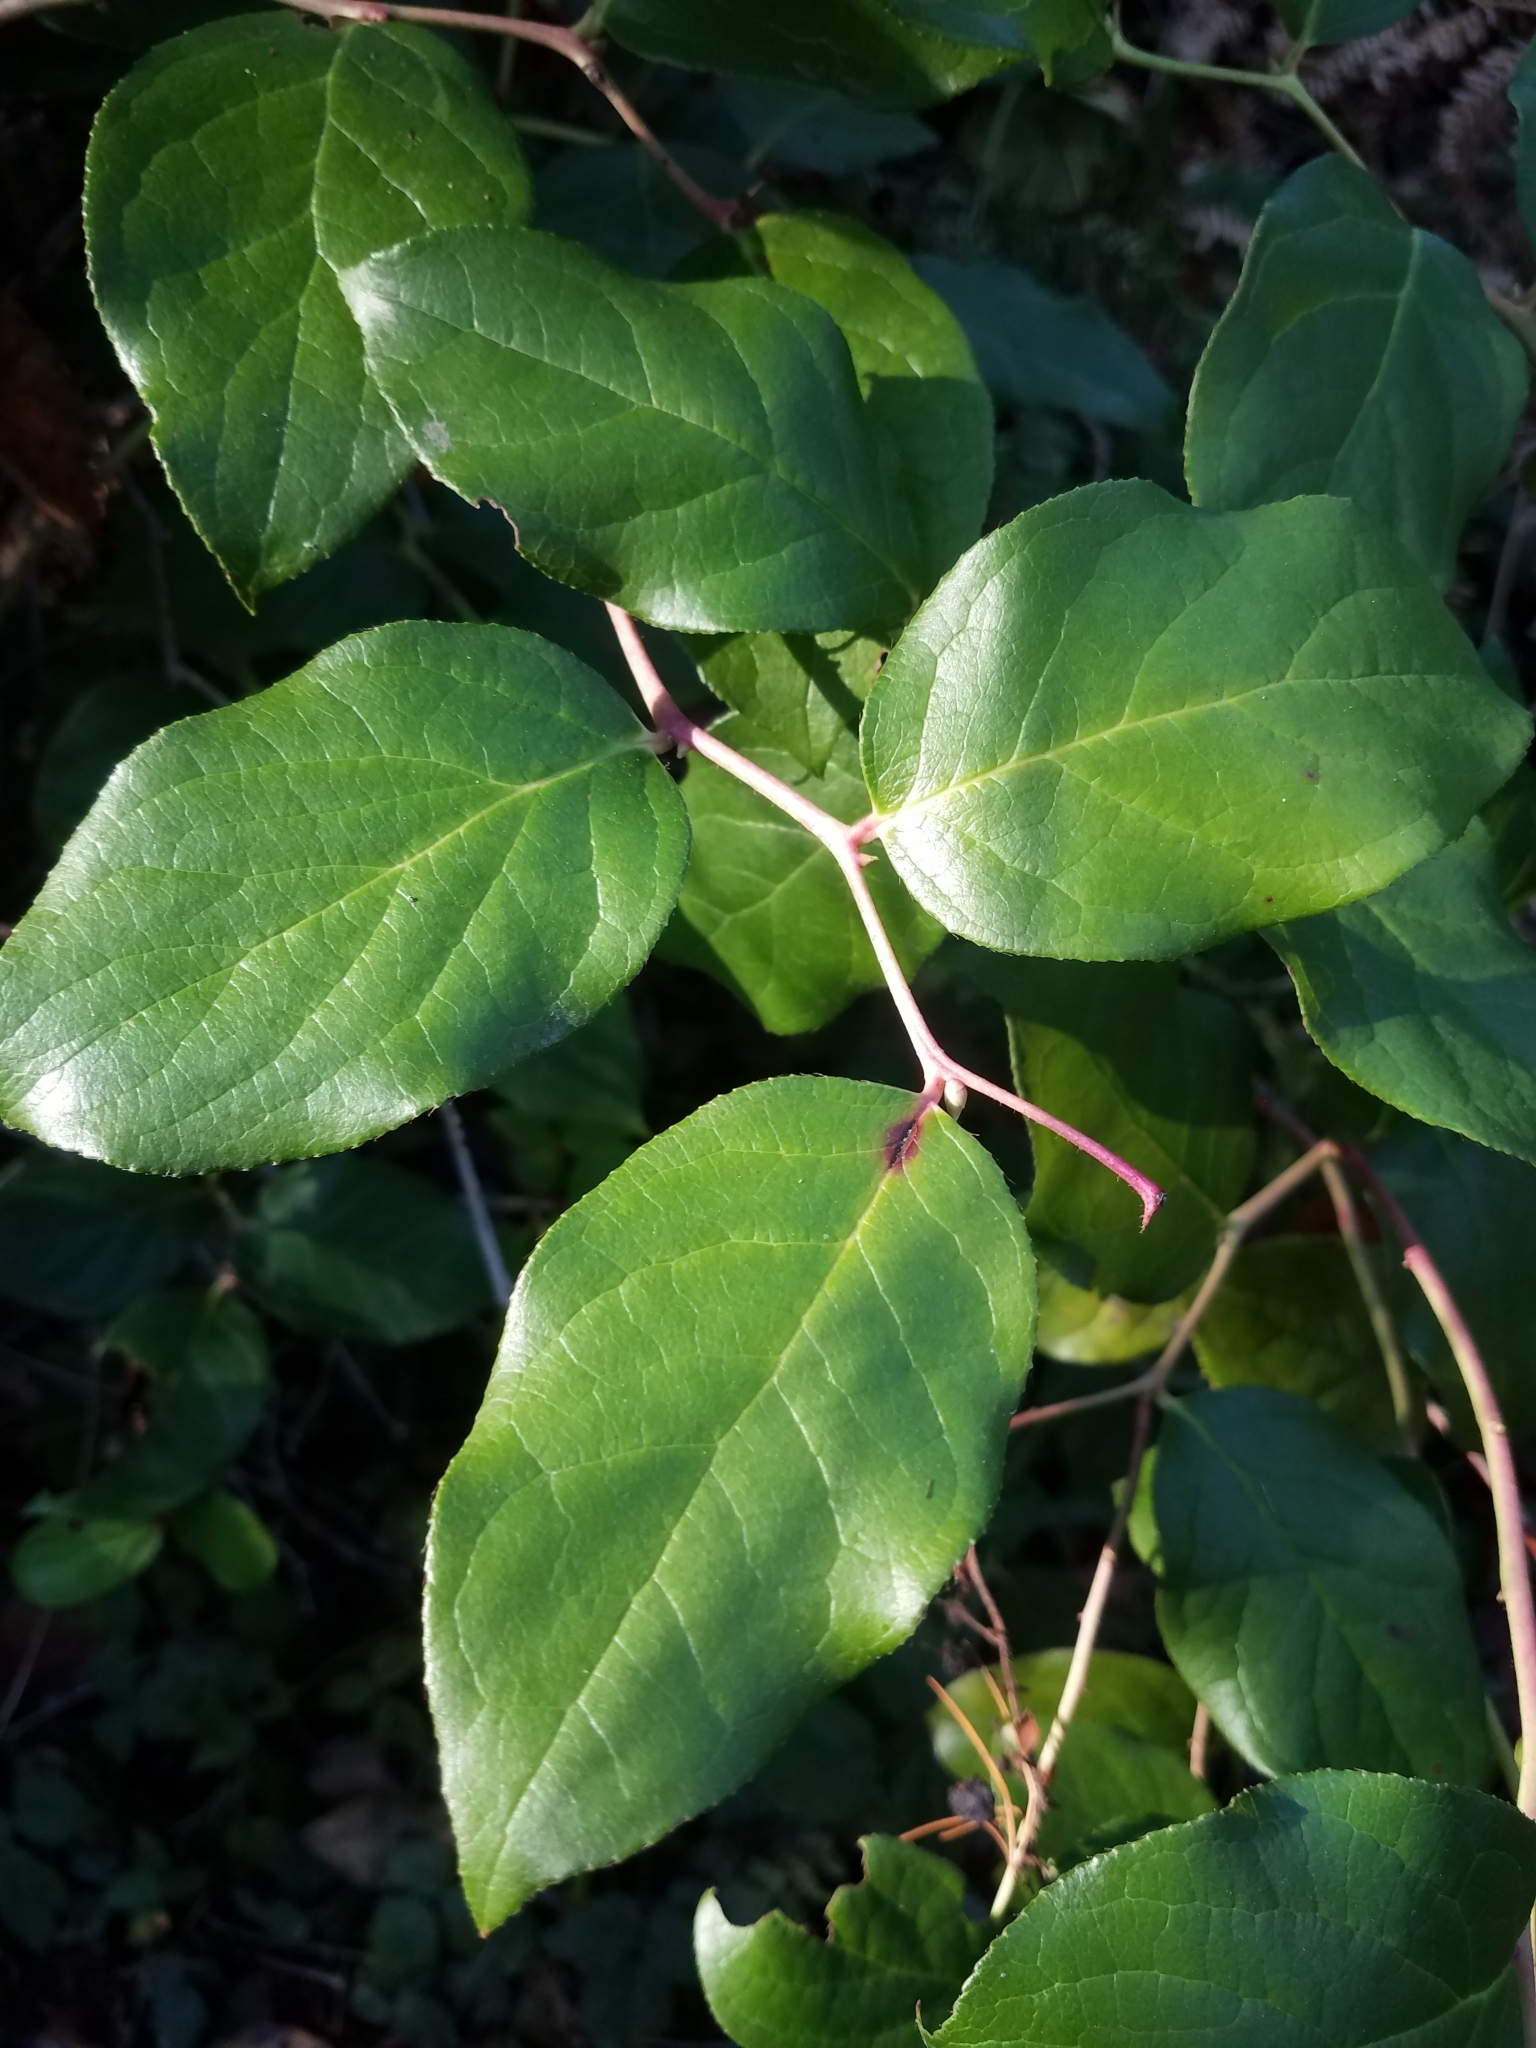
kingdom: Plantae
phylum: Tracheophyta
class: Magnoliopsida
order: Ericales
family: Ericaceae
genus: Gaultheria
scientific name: Gaultheria shallon
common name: Shallon
